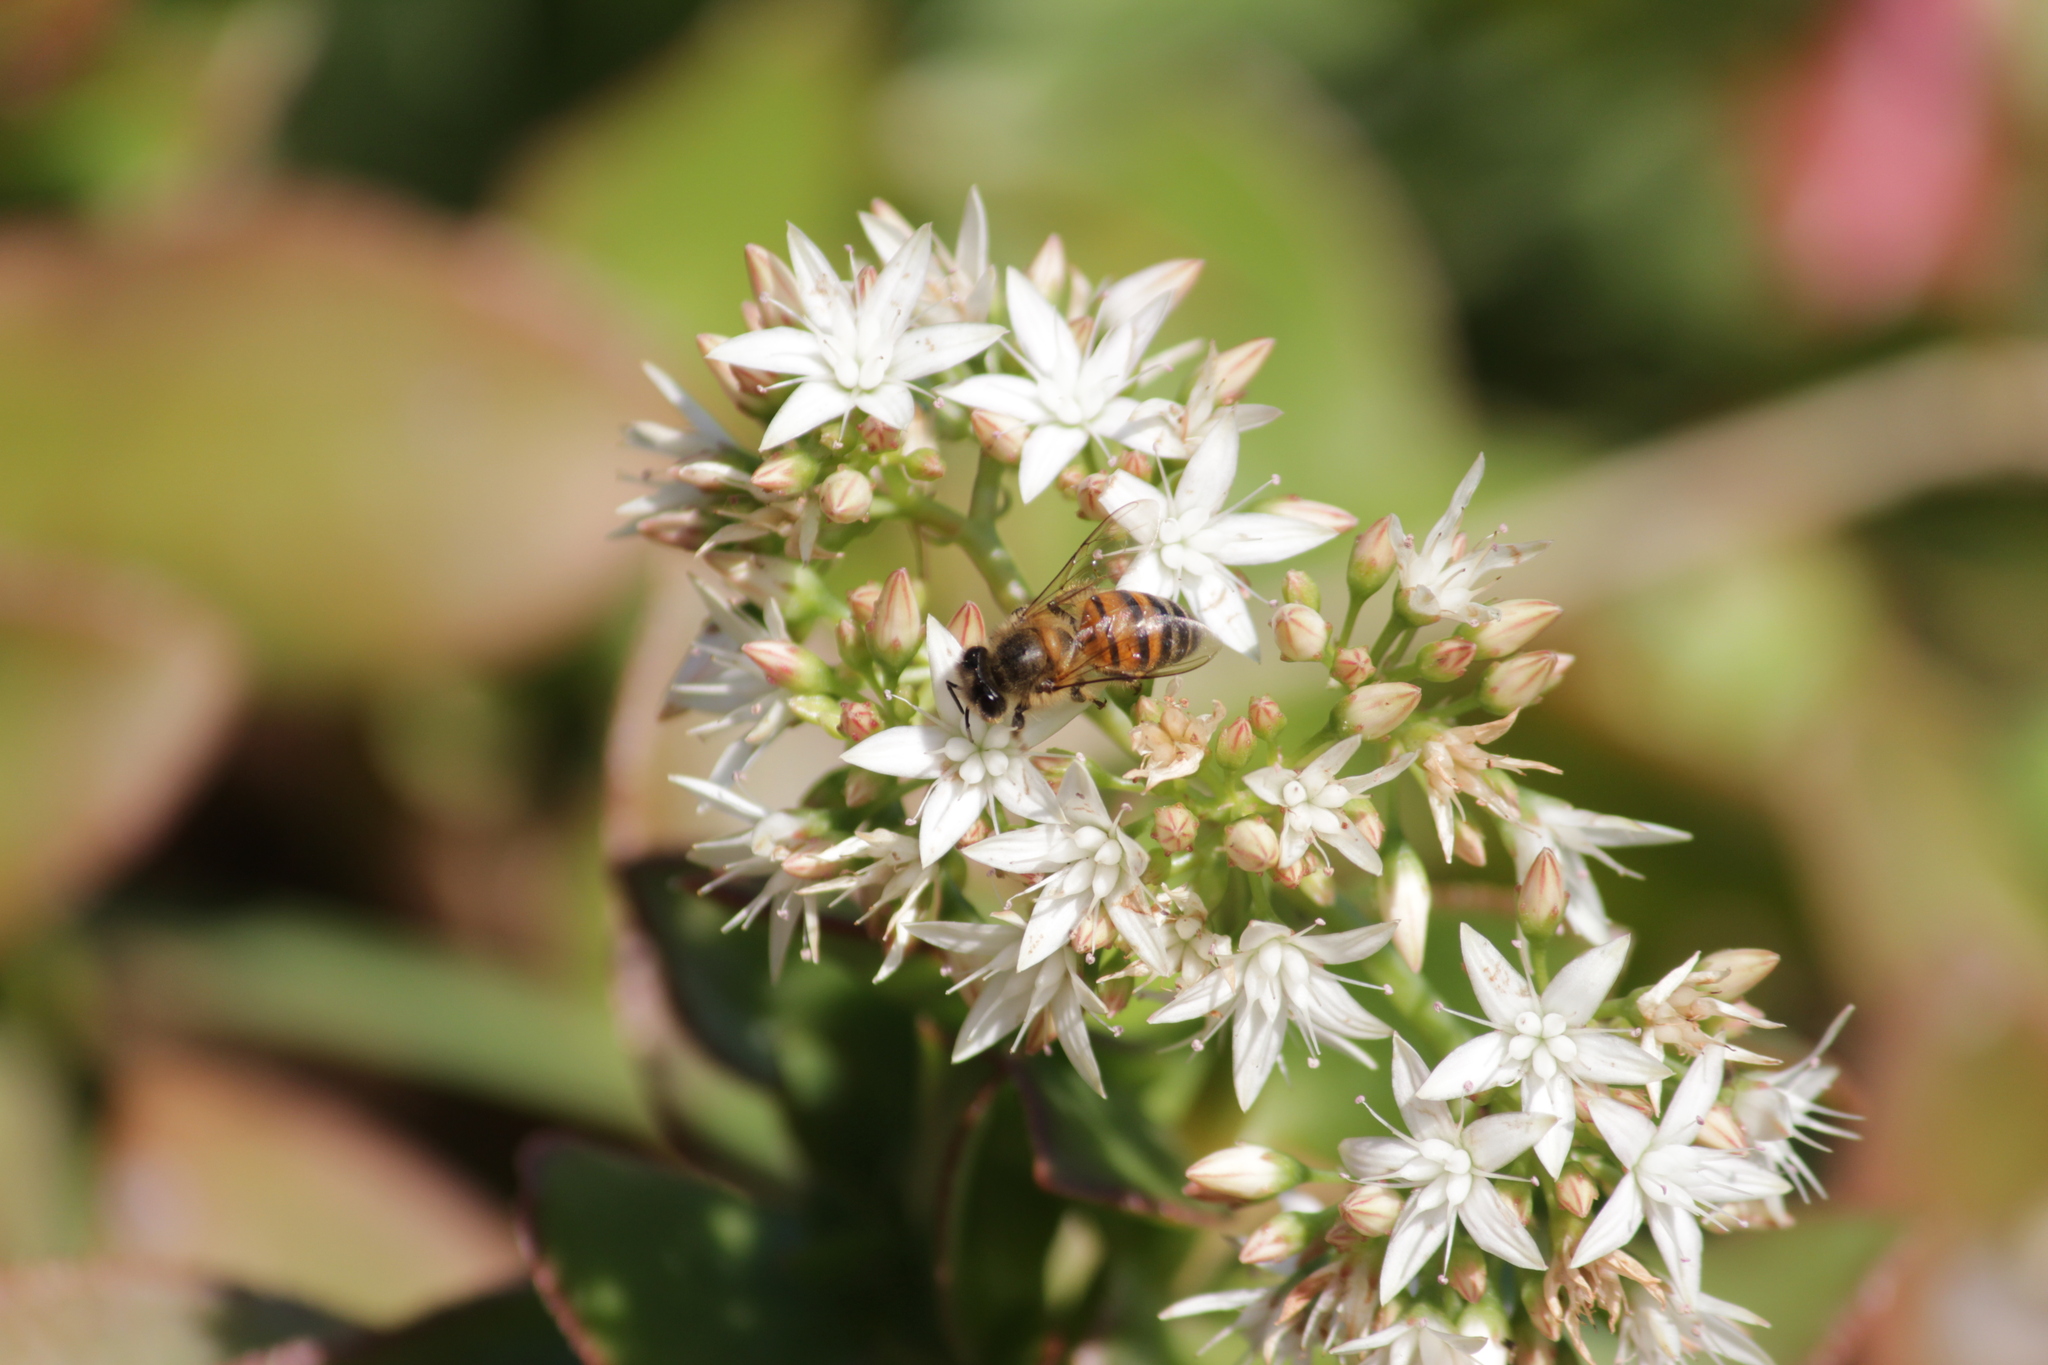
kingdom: Animalia
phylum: Arthropoda
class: Insecta
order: Hymenoptera
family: Apidae
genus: Apis
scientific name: Apis mellifera
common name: Honey bee
